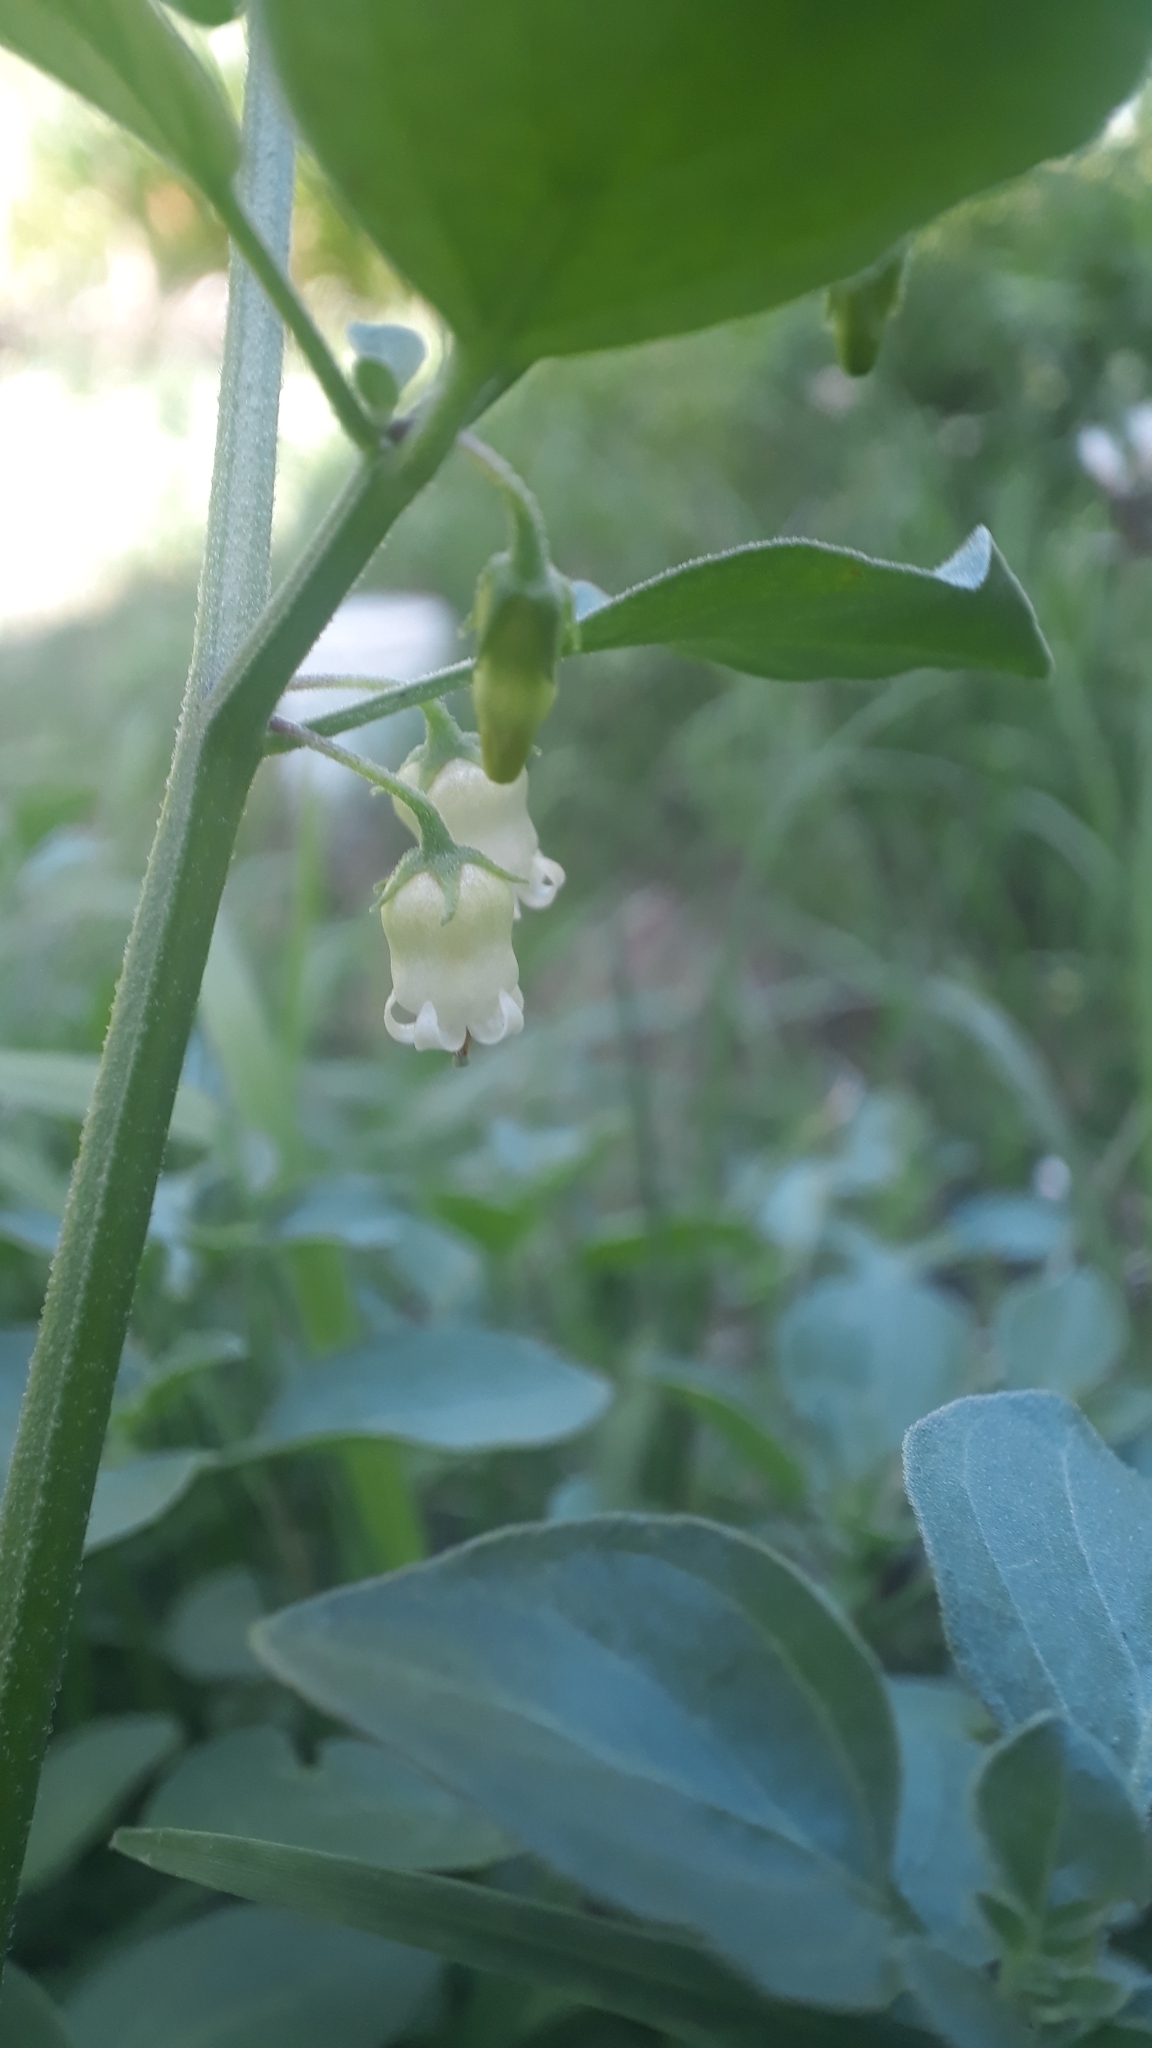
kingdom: Plantae
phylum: Tracheophyta
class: Magnoliopsida
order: Solanales
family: Solanaceae
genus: Salpichroa
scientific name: Salpichroa origanifolia
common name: Lily-of-the-valley-vine
